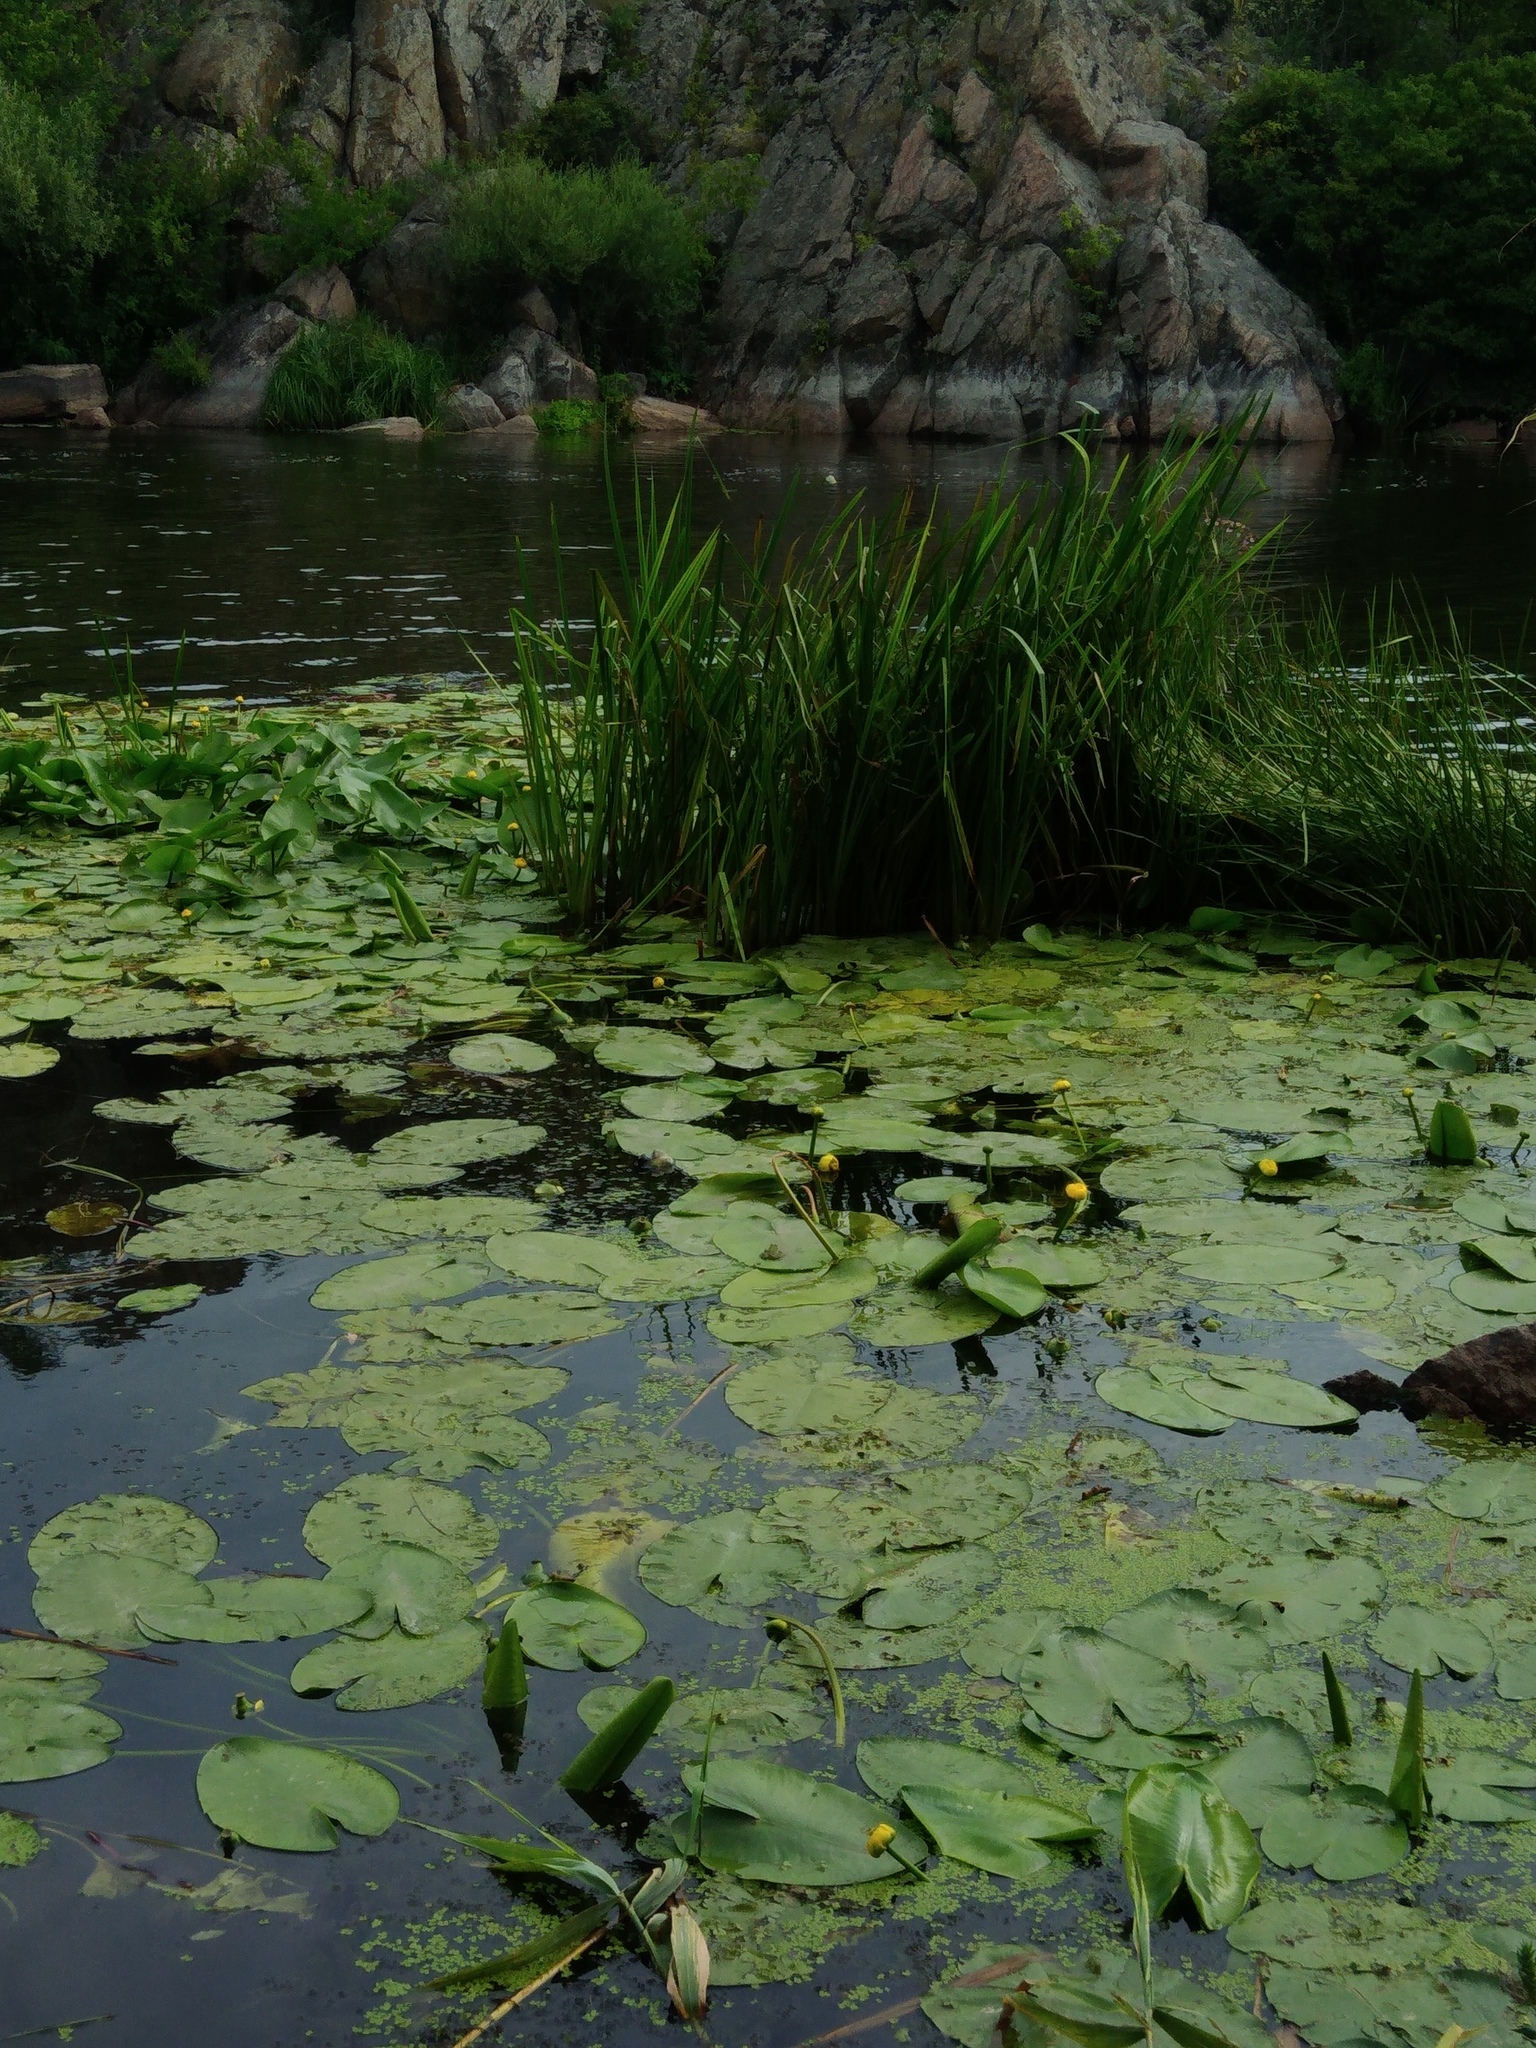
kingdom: Plantae
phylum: Tracheophyta
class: Magnoliopsida
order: Nymphaeales
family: Nymphaeaceae
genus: Nuphar
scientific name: Nuphar lutea
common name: Yellow water-lily
